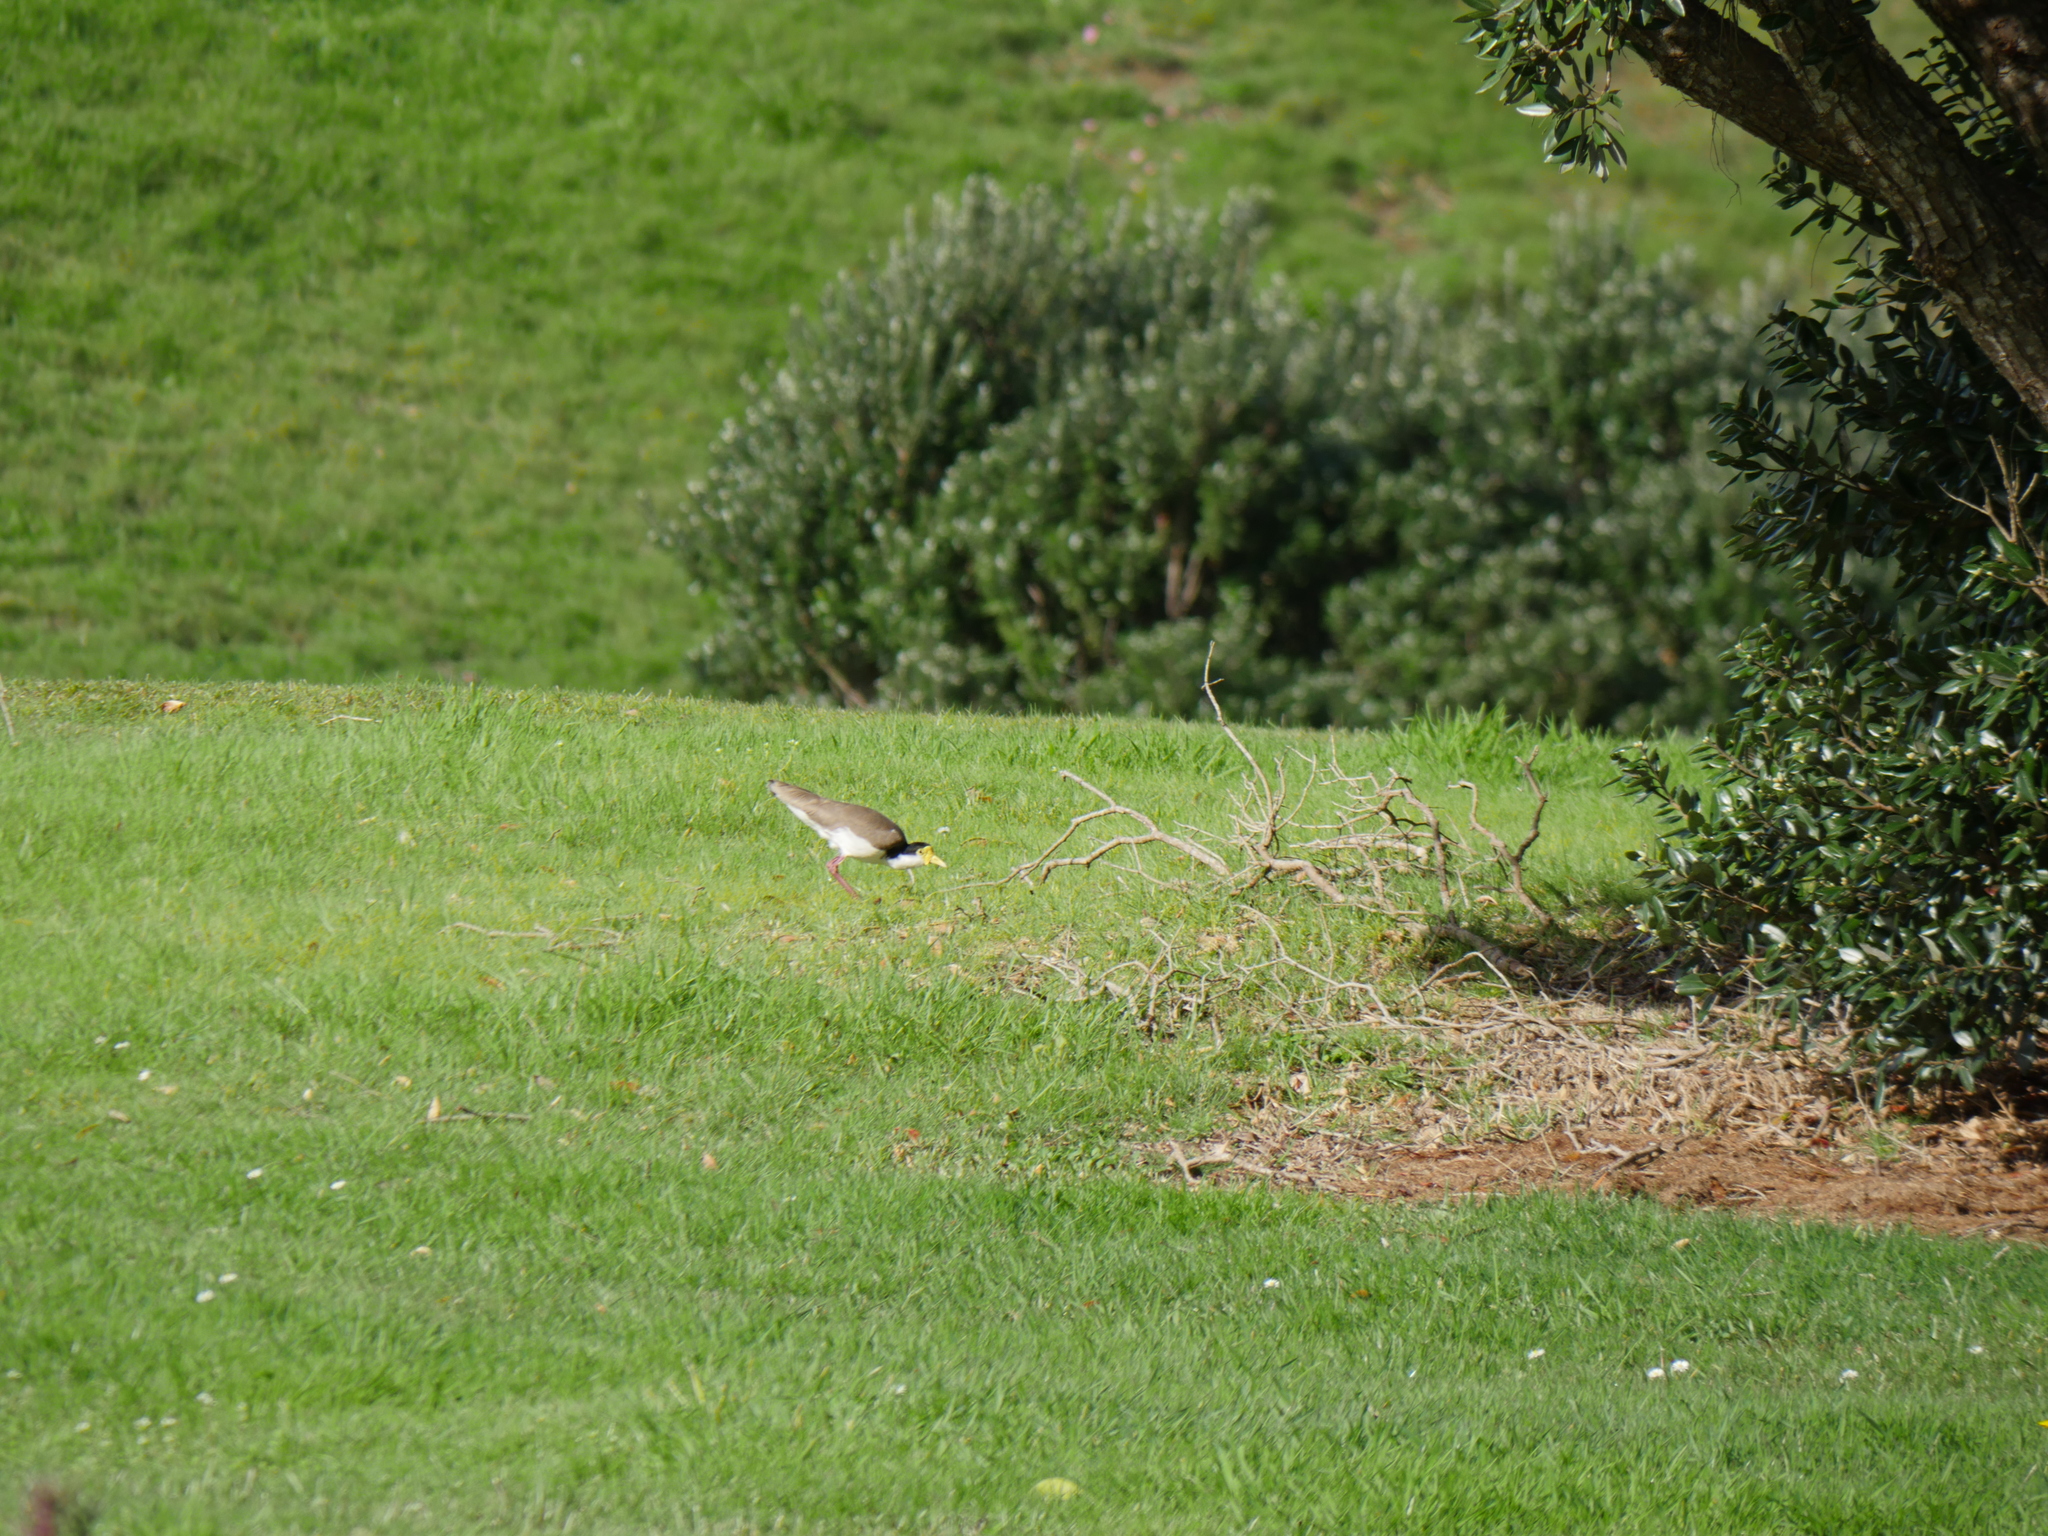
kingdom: Animalia
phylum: Chordata
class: Aves
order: Charadriiformes
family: Charadriidae
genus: Vanellus
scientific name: Vanellus miles
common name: Masked lapwing
